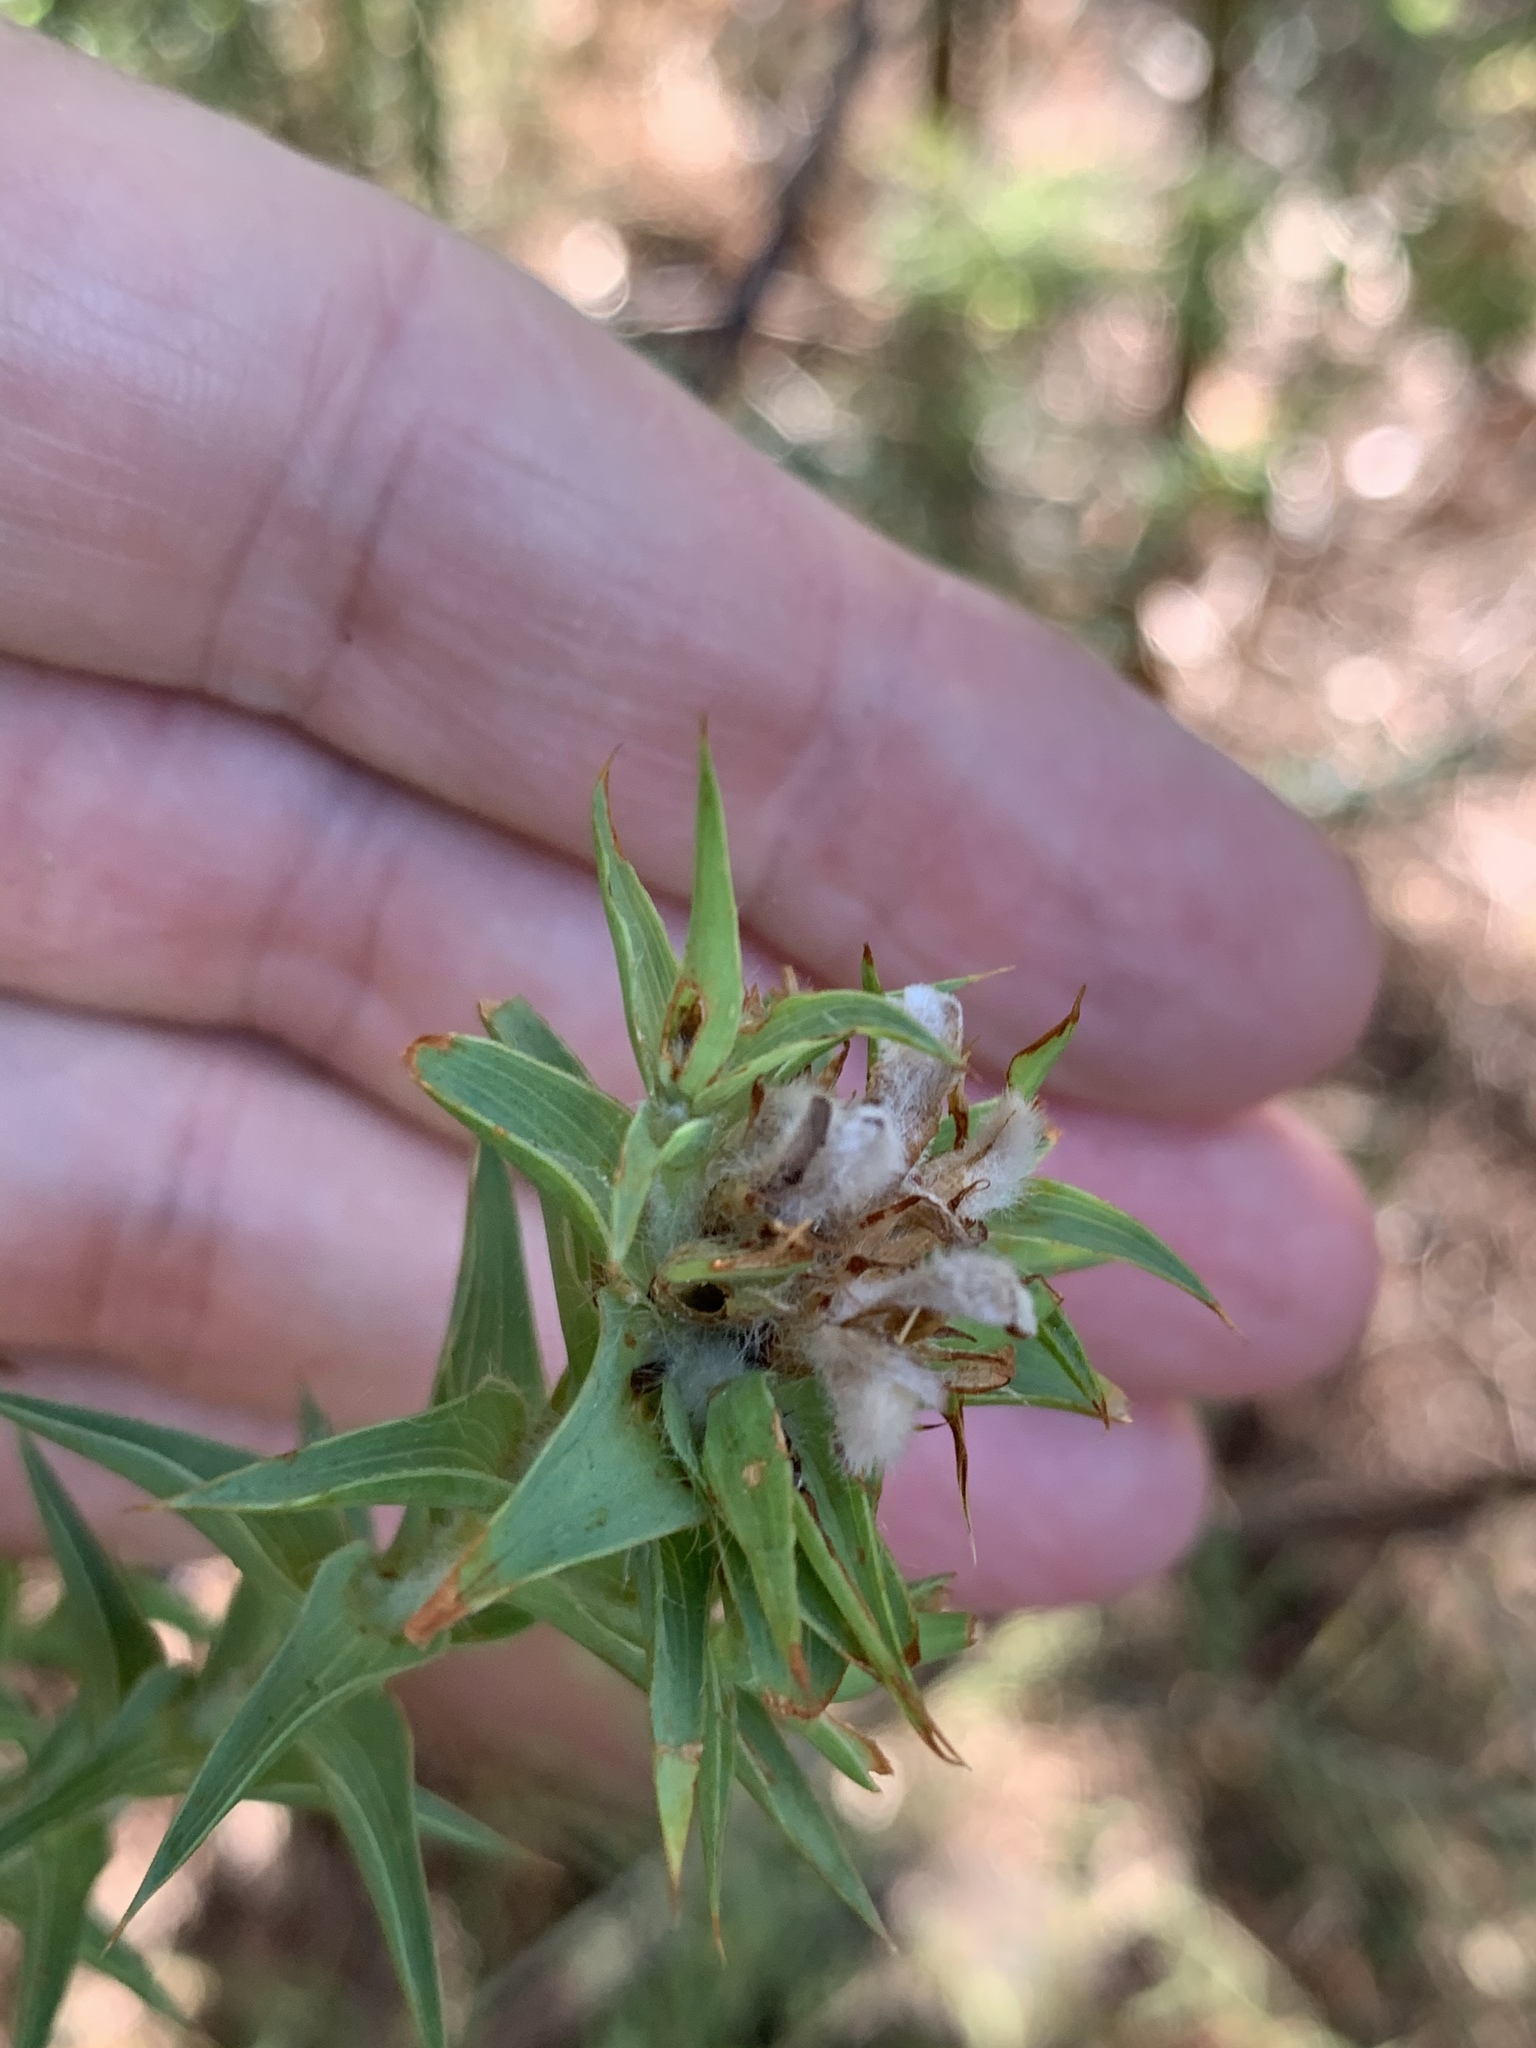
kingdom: Plantae
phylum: Tracheophyta
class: Magnoliopsida
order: Fabales
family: Fabaceae
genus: Aspalathus
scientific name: Aspalathus cordata
